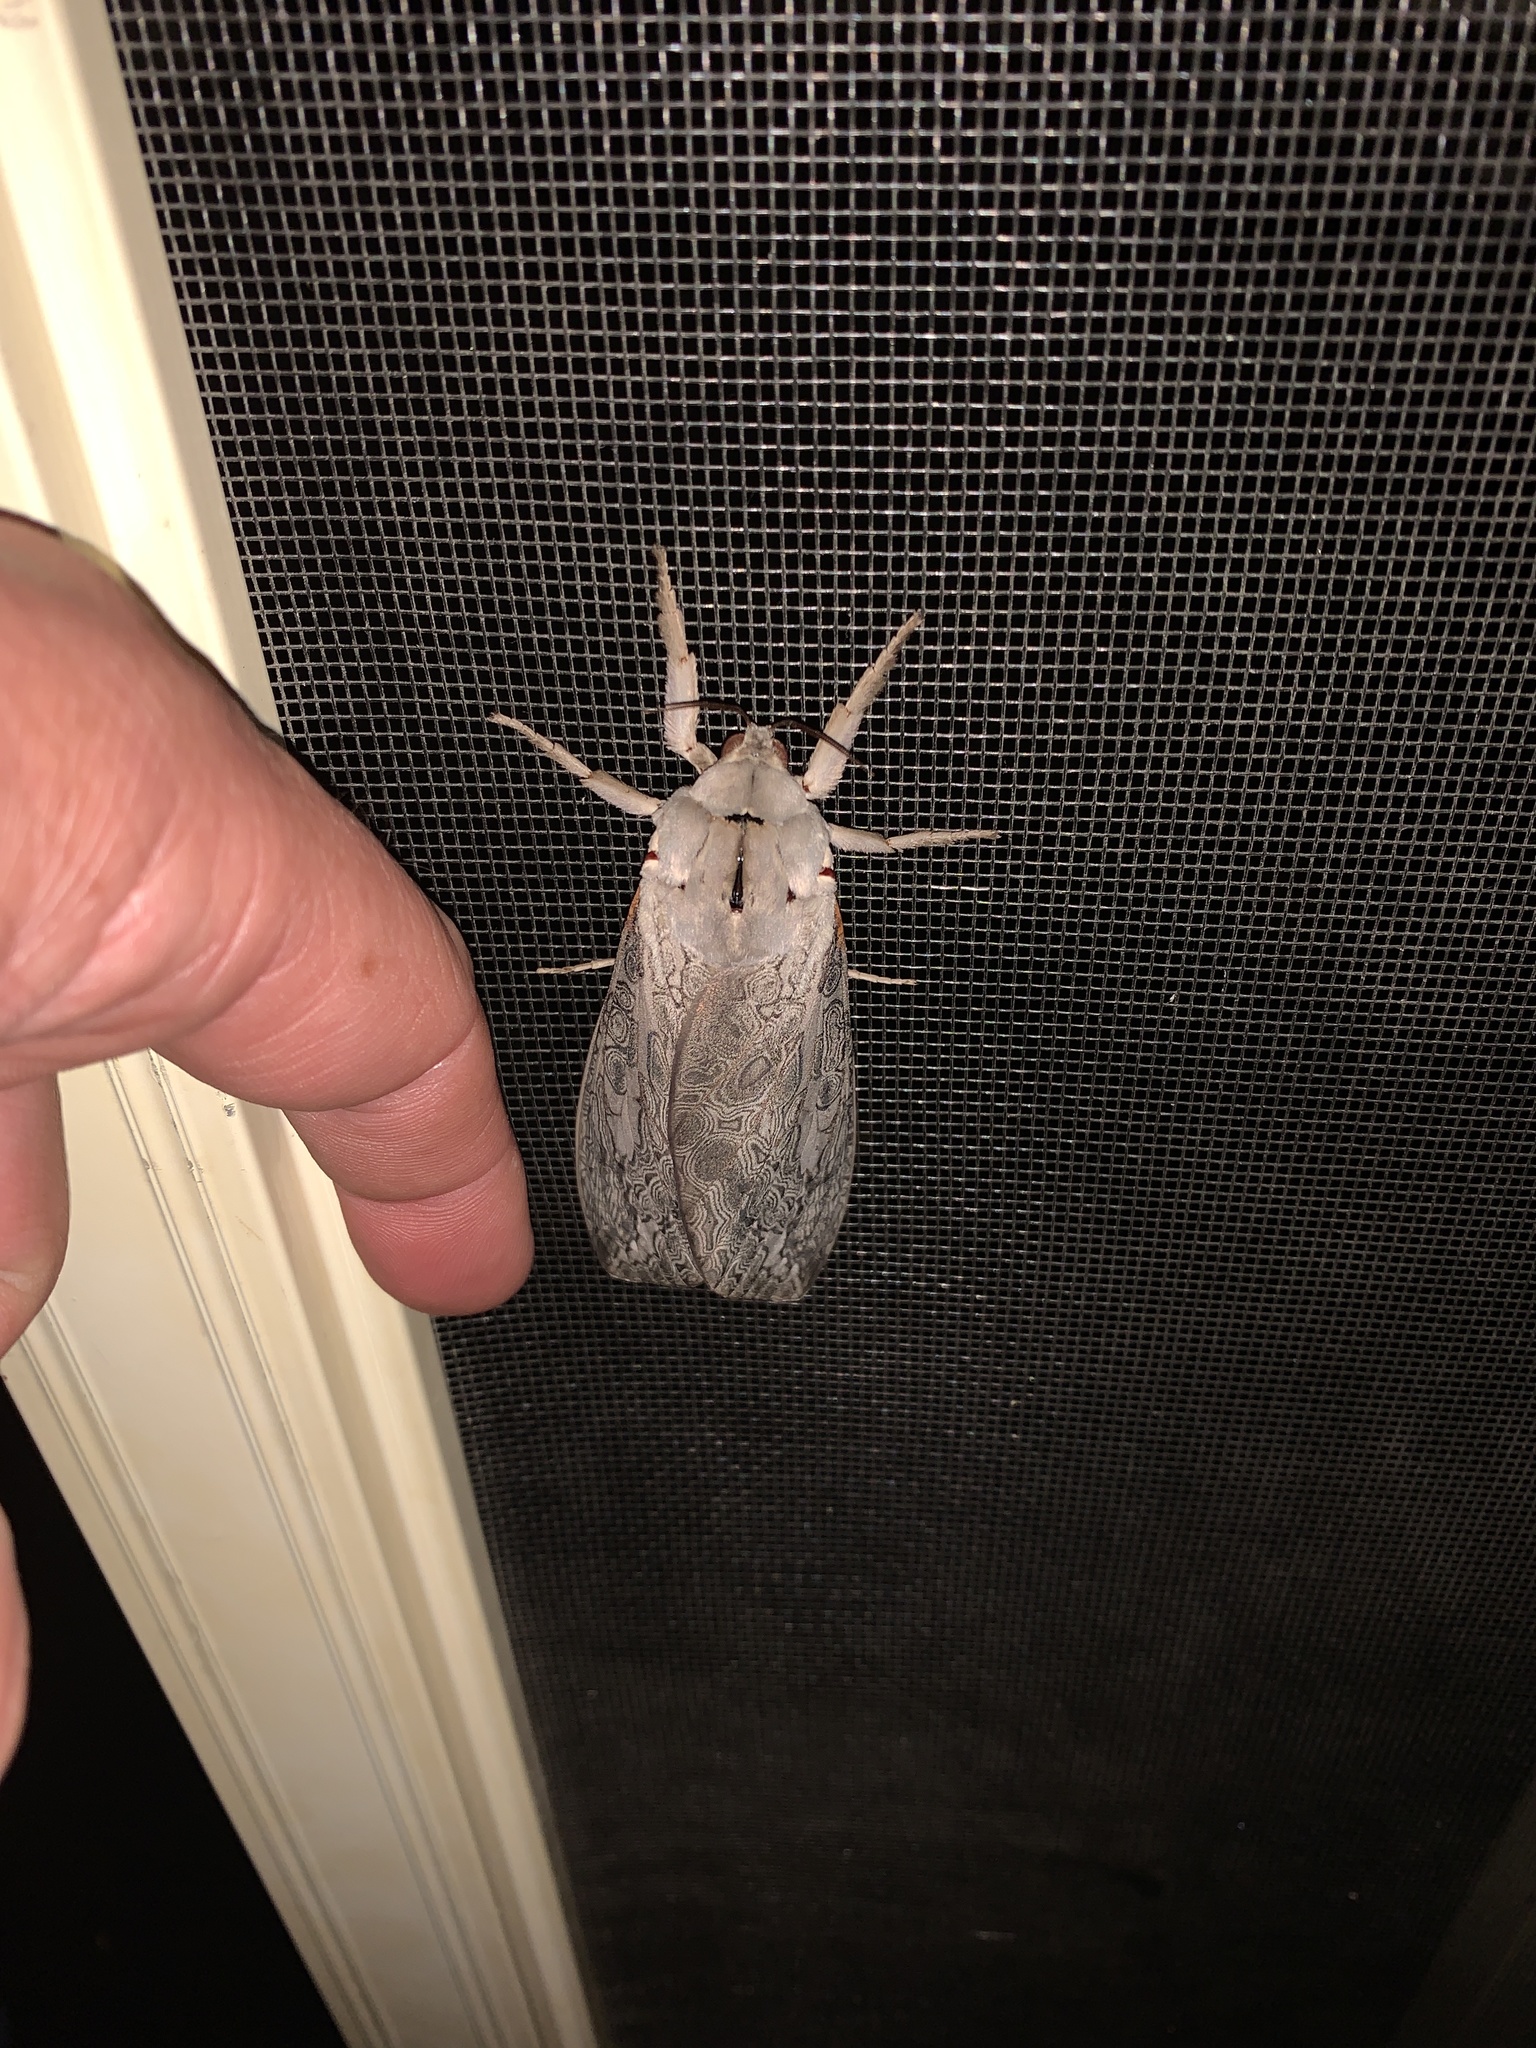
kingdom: Animalia
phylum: Arthropoda
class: Insecta
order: Lepidoptera
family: Hepialidae
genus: Abantiades
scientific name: Abantiades marcidus
